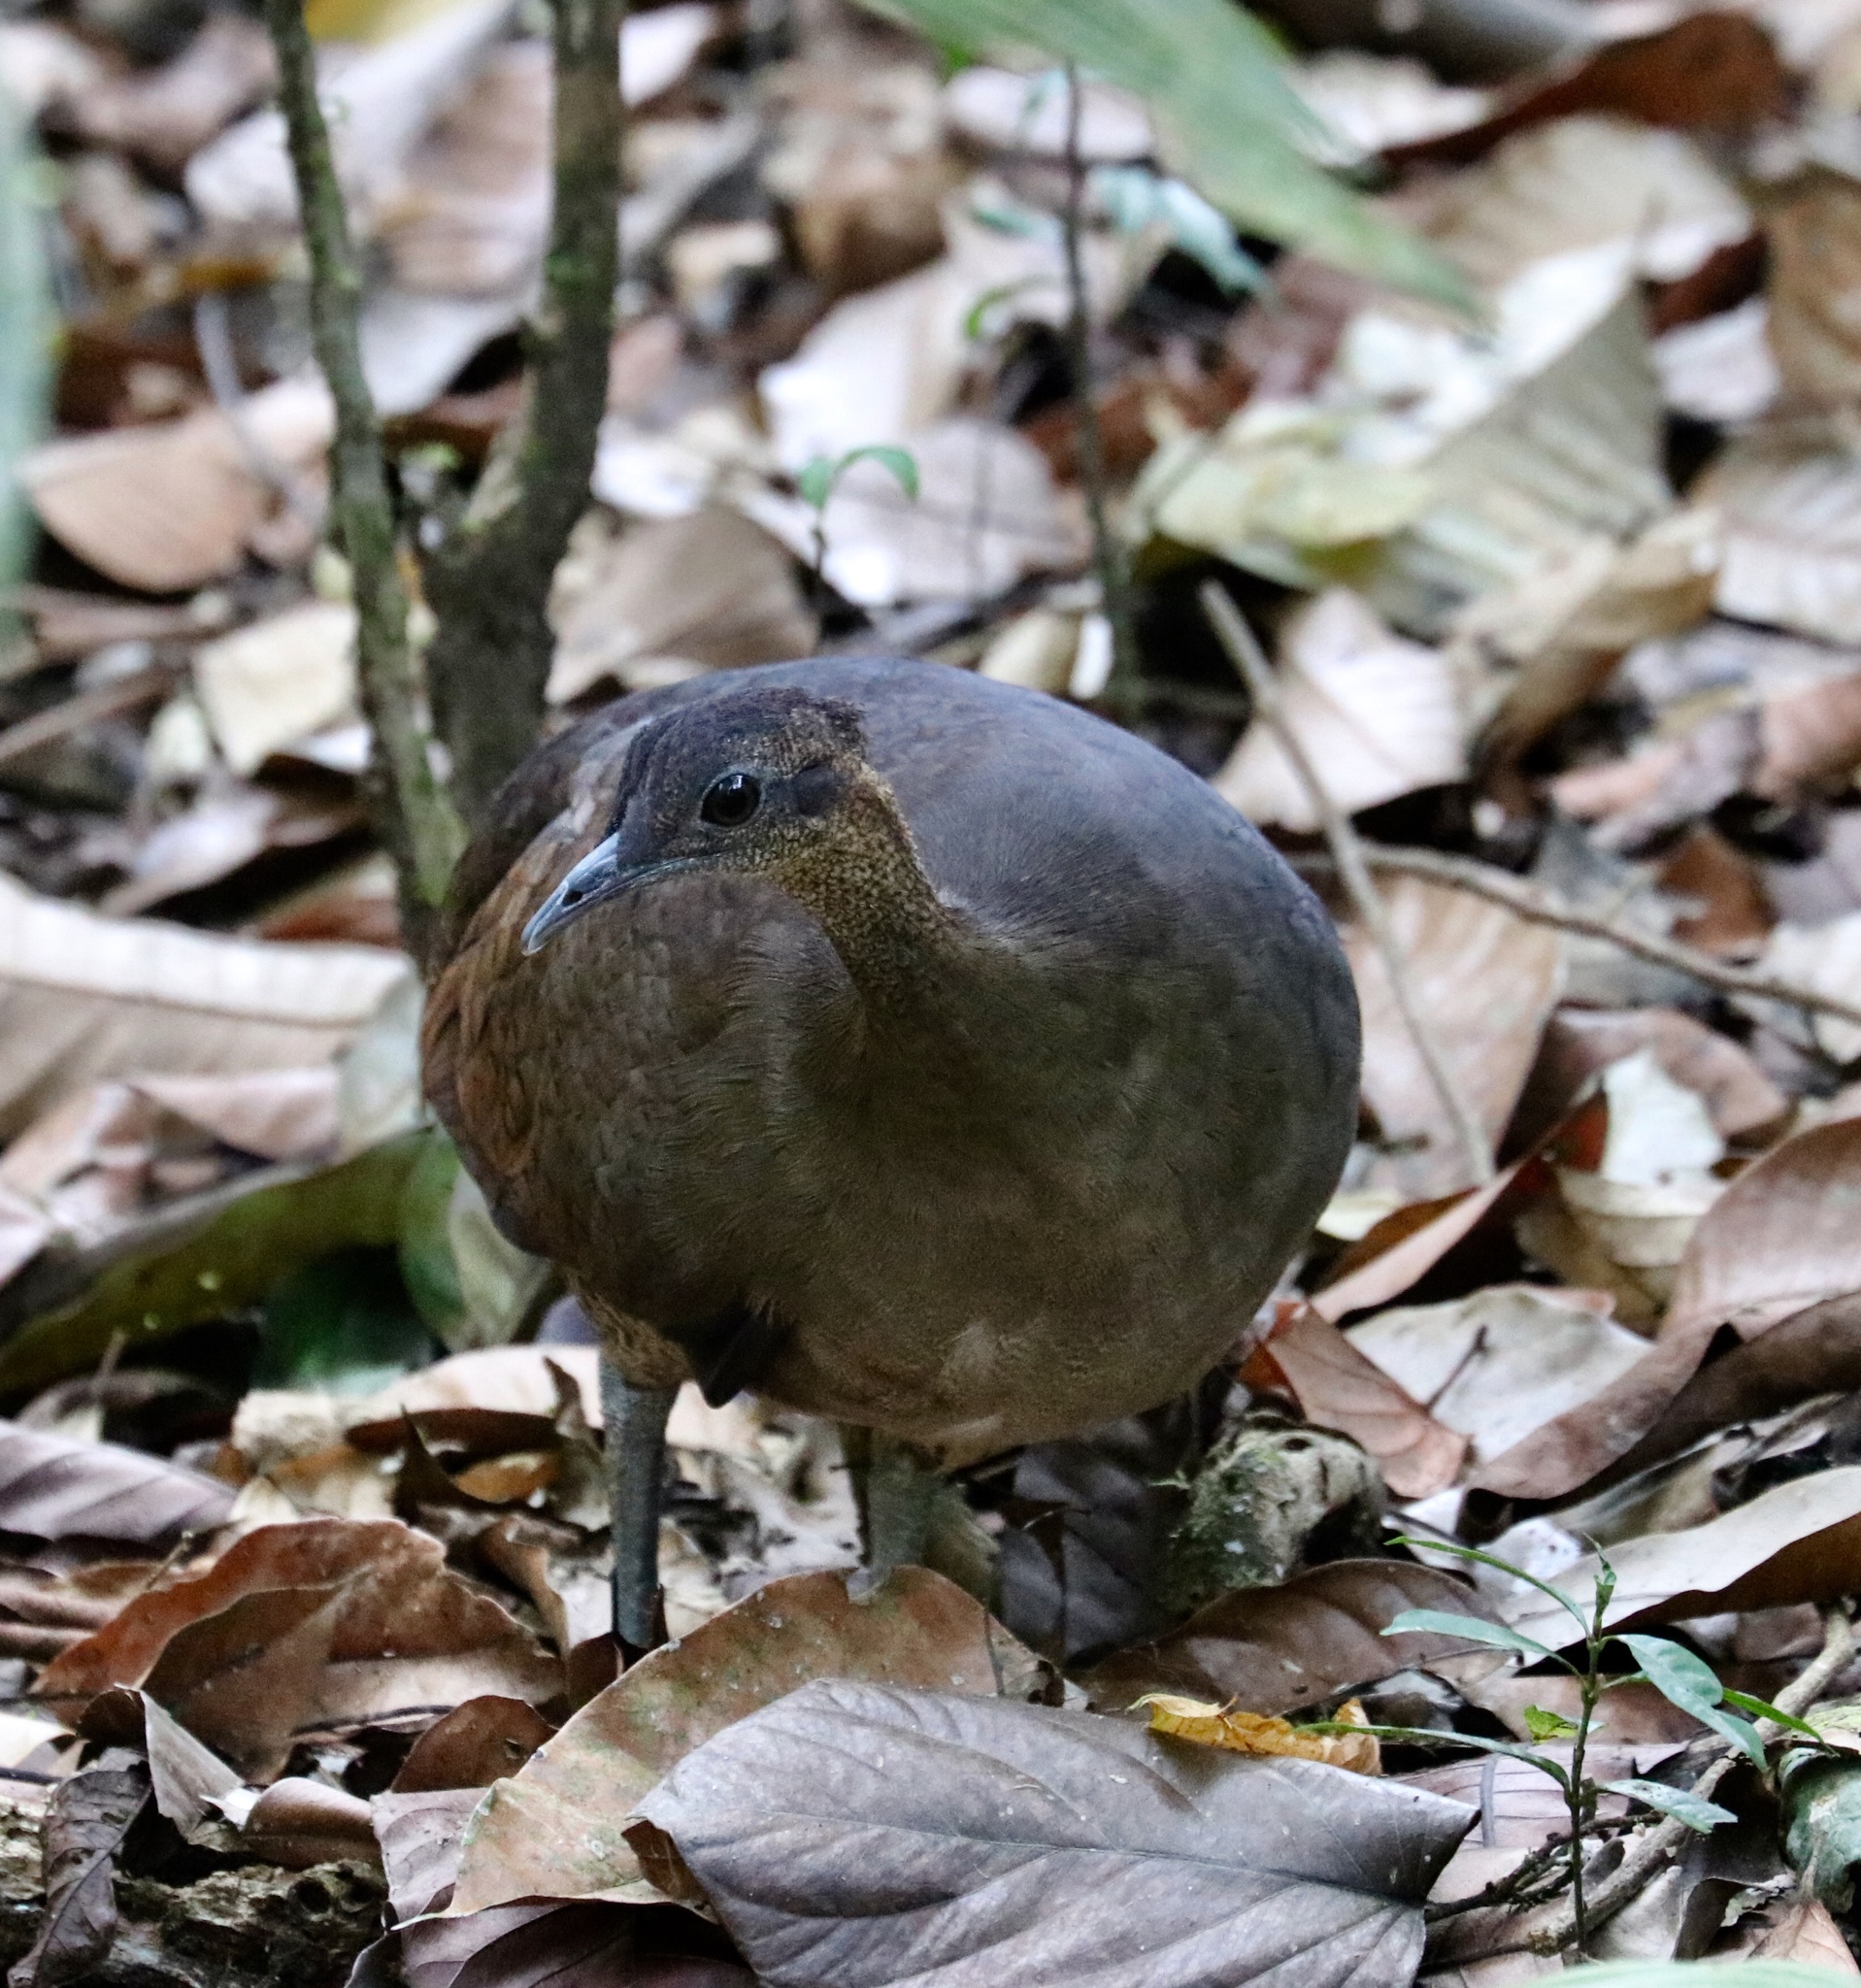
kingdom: Animalia
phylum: Chordata
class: Aves
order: Tinamiformes
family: Tinamidae
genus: Tinamus
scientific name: Tinamus major
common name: Great tinamou
